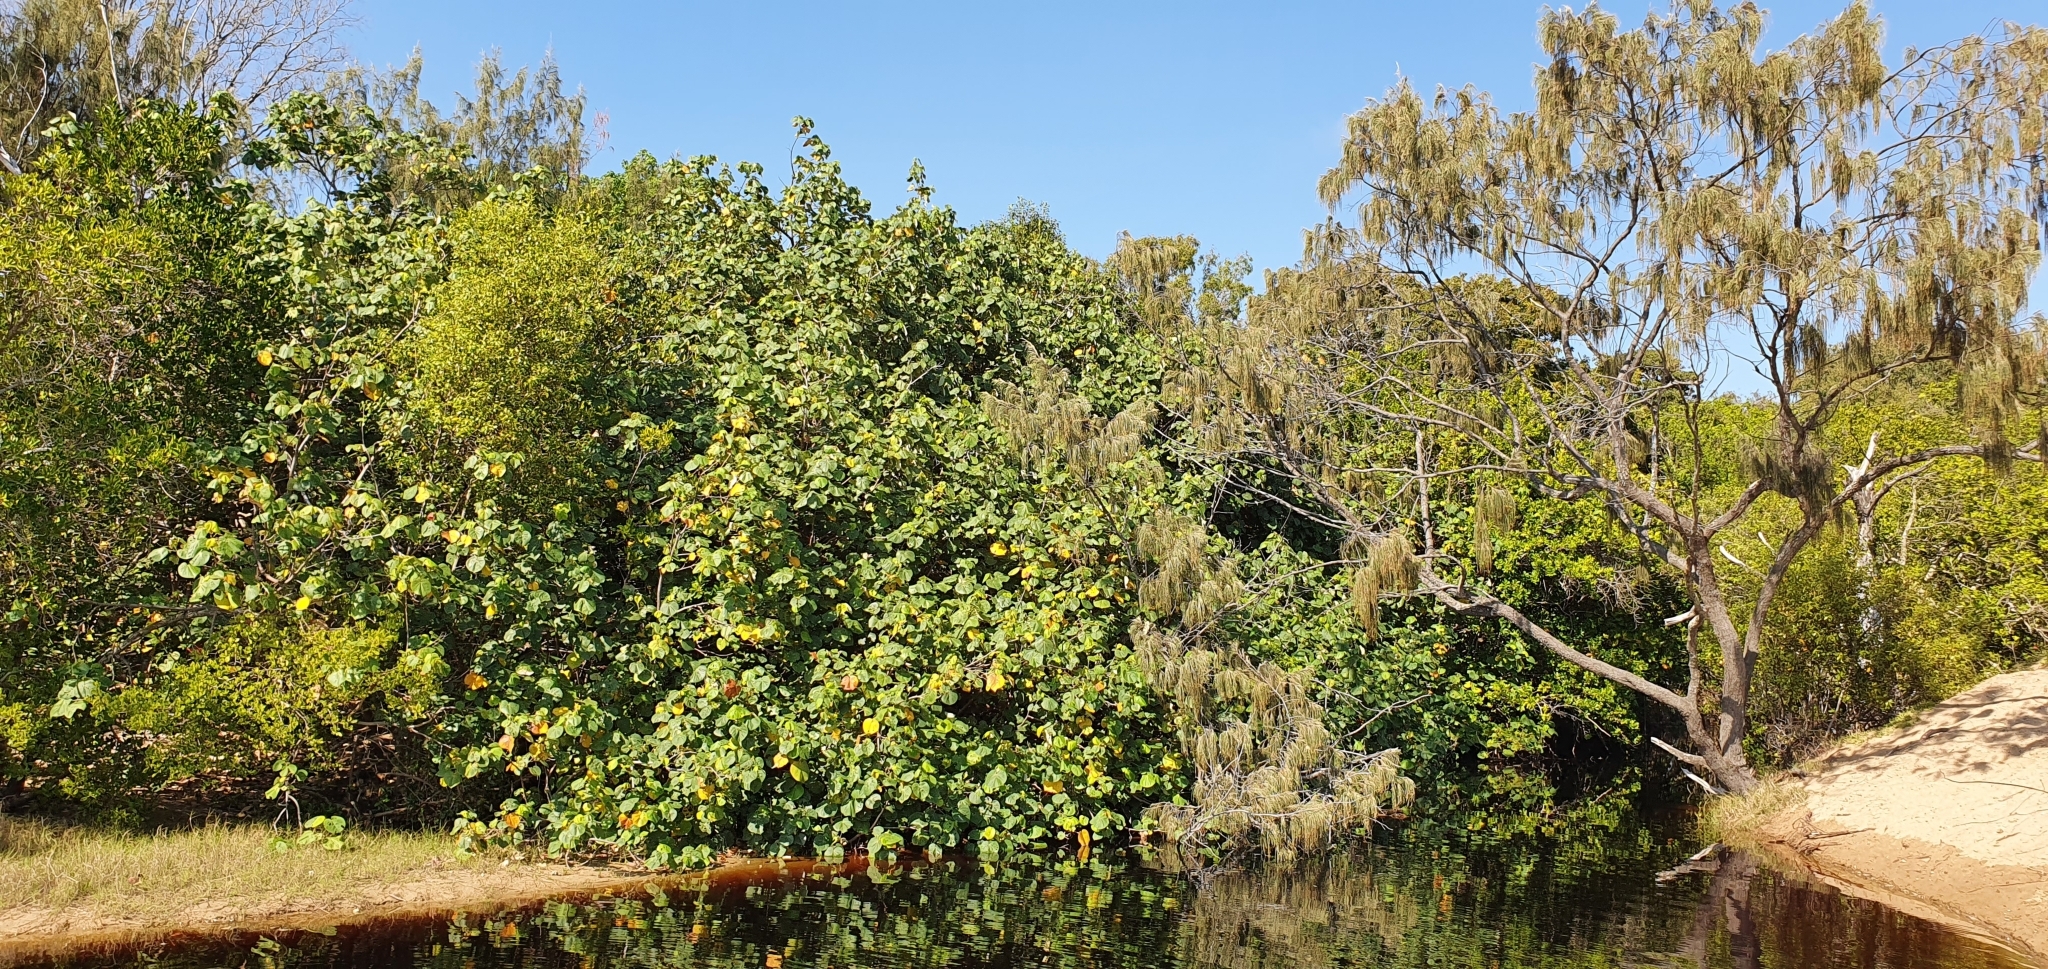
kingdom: Plantae
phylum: Tracheophyta
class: Magnoliopsida
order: Malvales
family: Malvaceae
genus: Talipariti
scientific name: Talipariti tiliaceum
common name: Sea hibiscus
